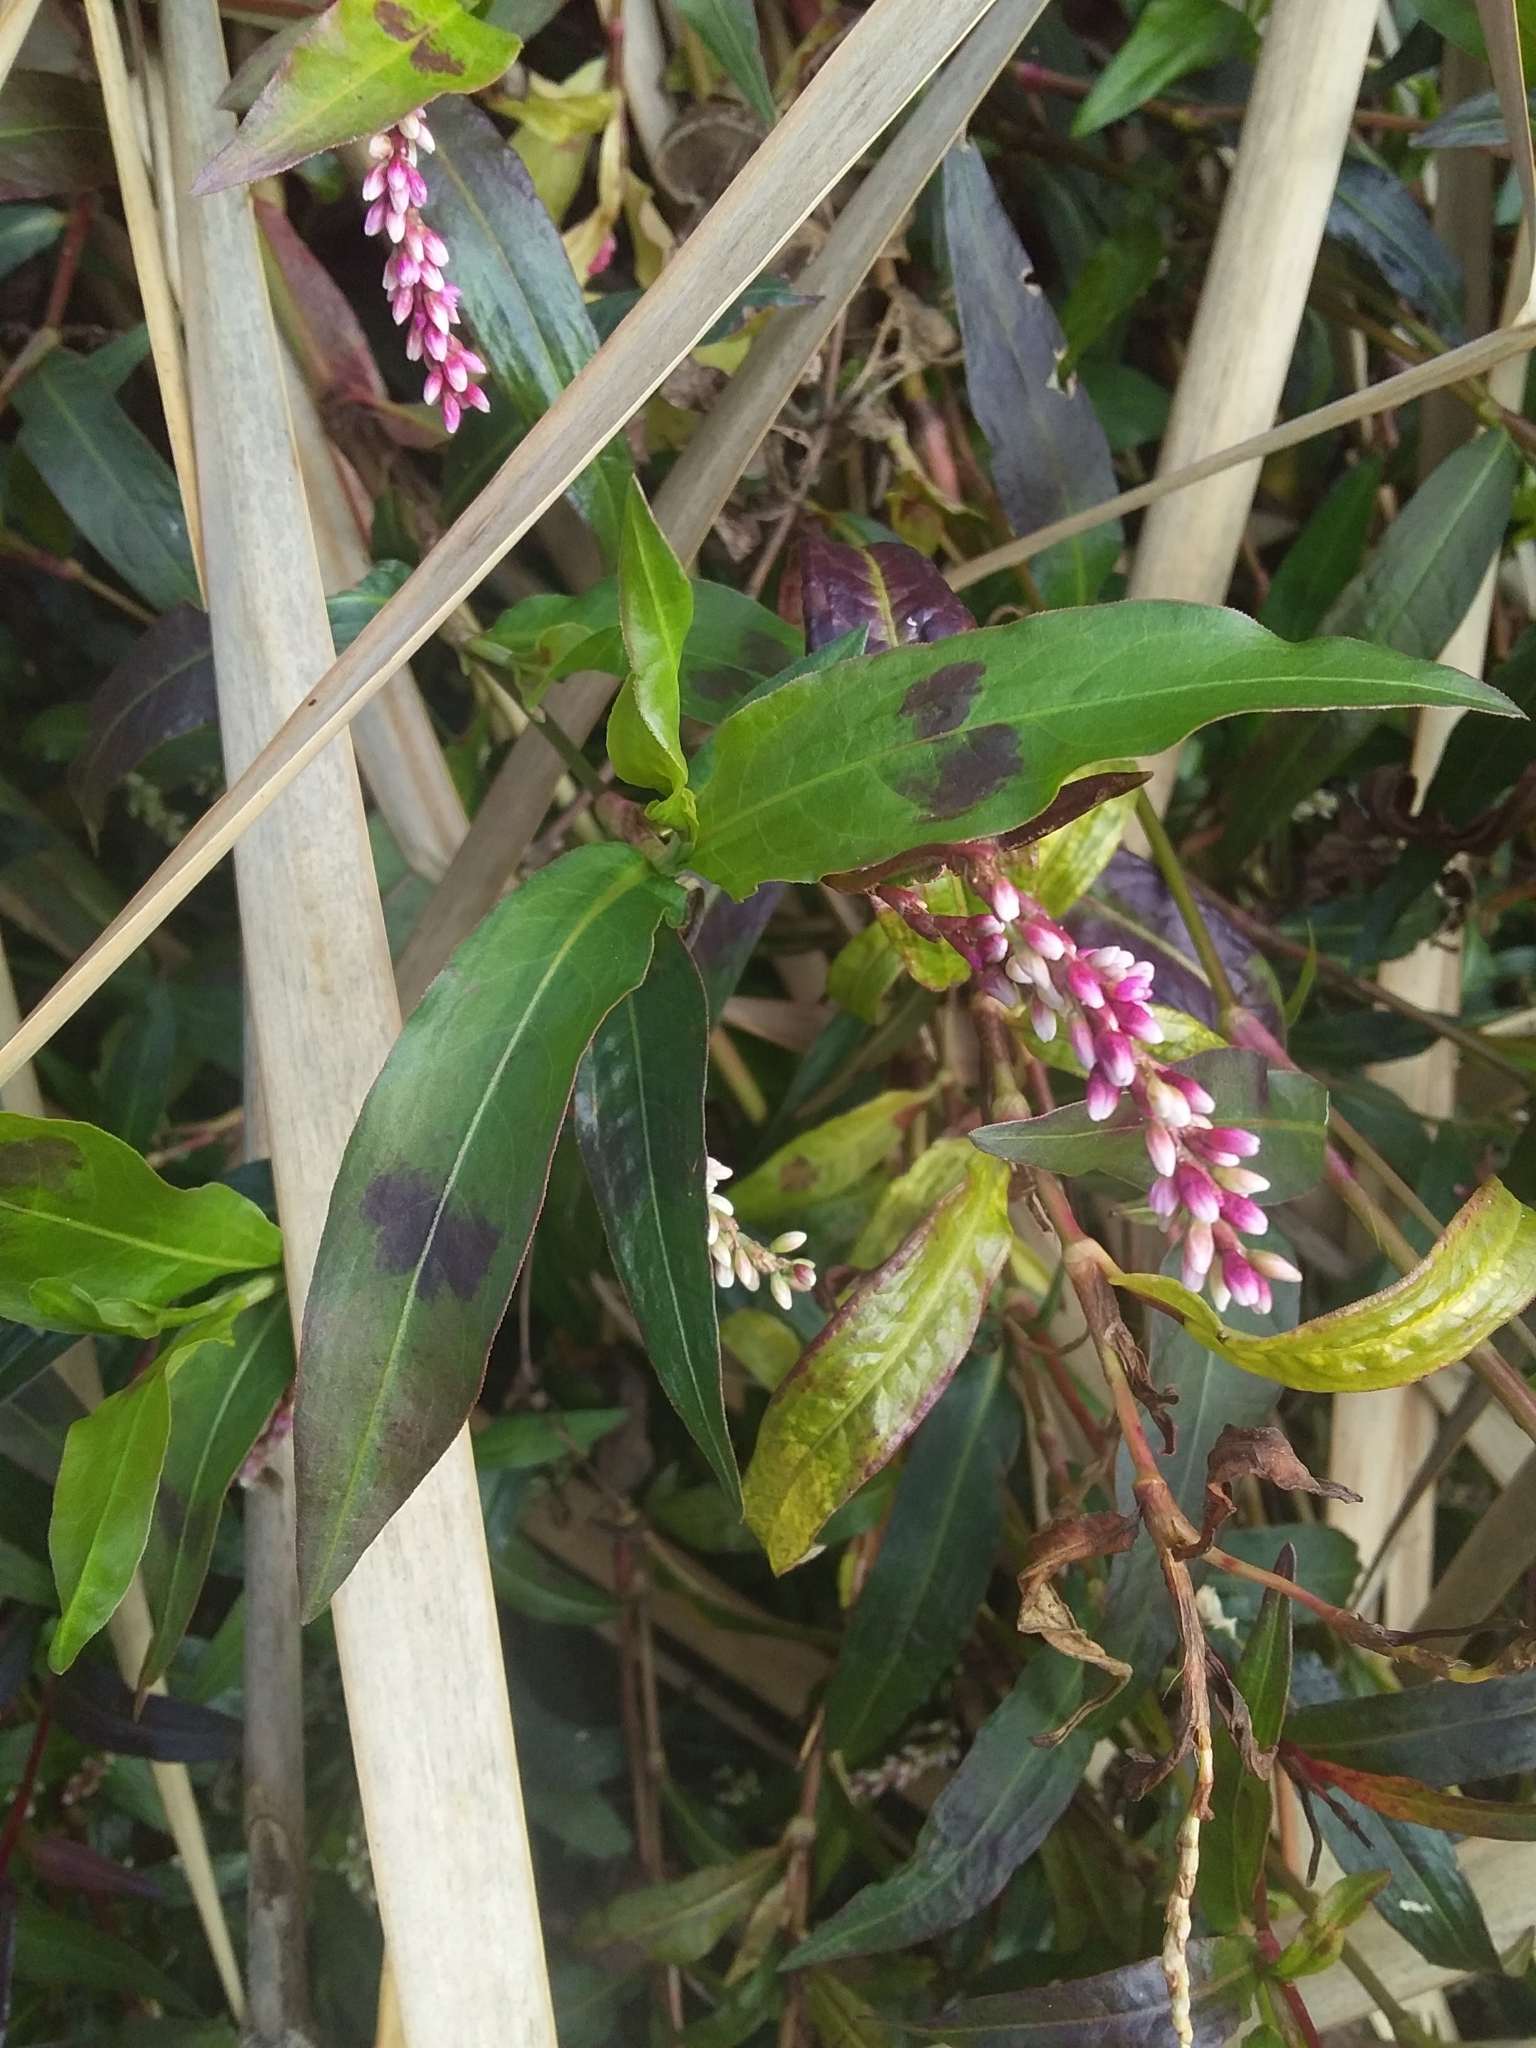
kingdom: Plantae
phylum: Tracheophyta
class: Magnoliopsida
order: Caryophyllales
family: Polygonaceae
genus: Persicaria
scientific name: Persicaria decipiens
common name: Willow-weed
